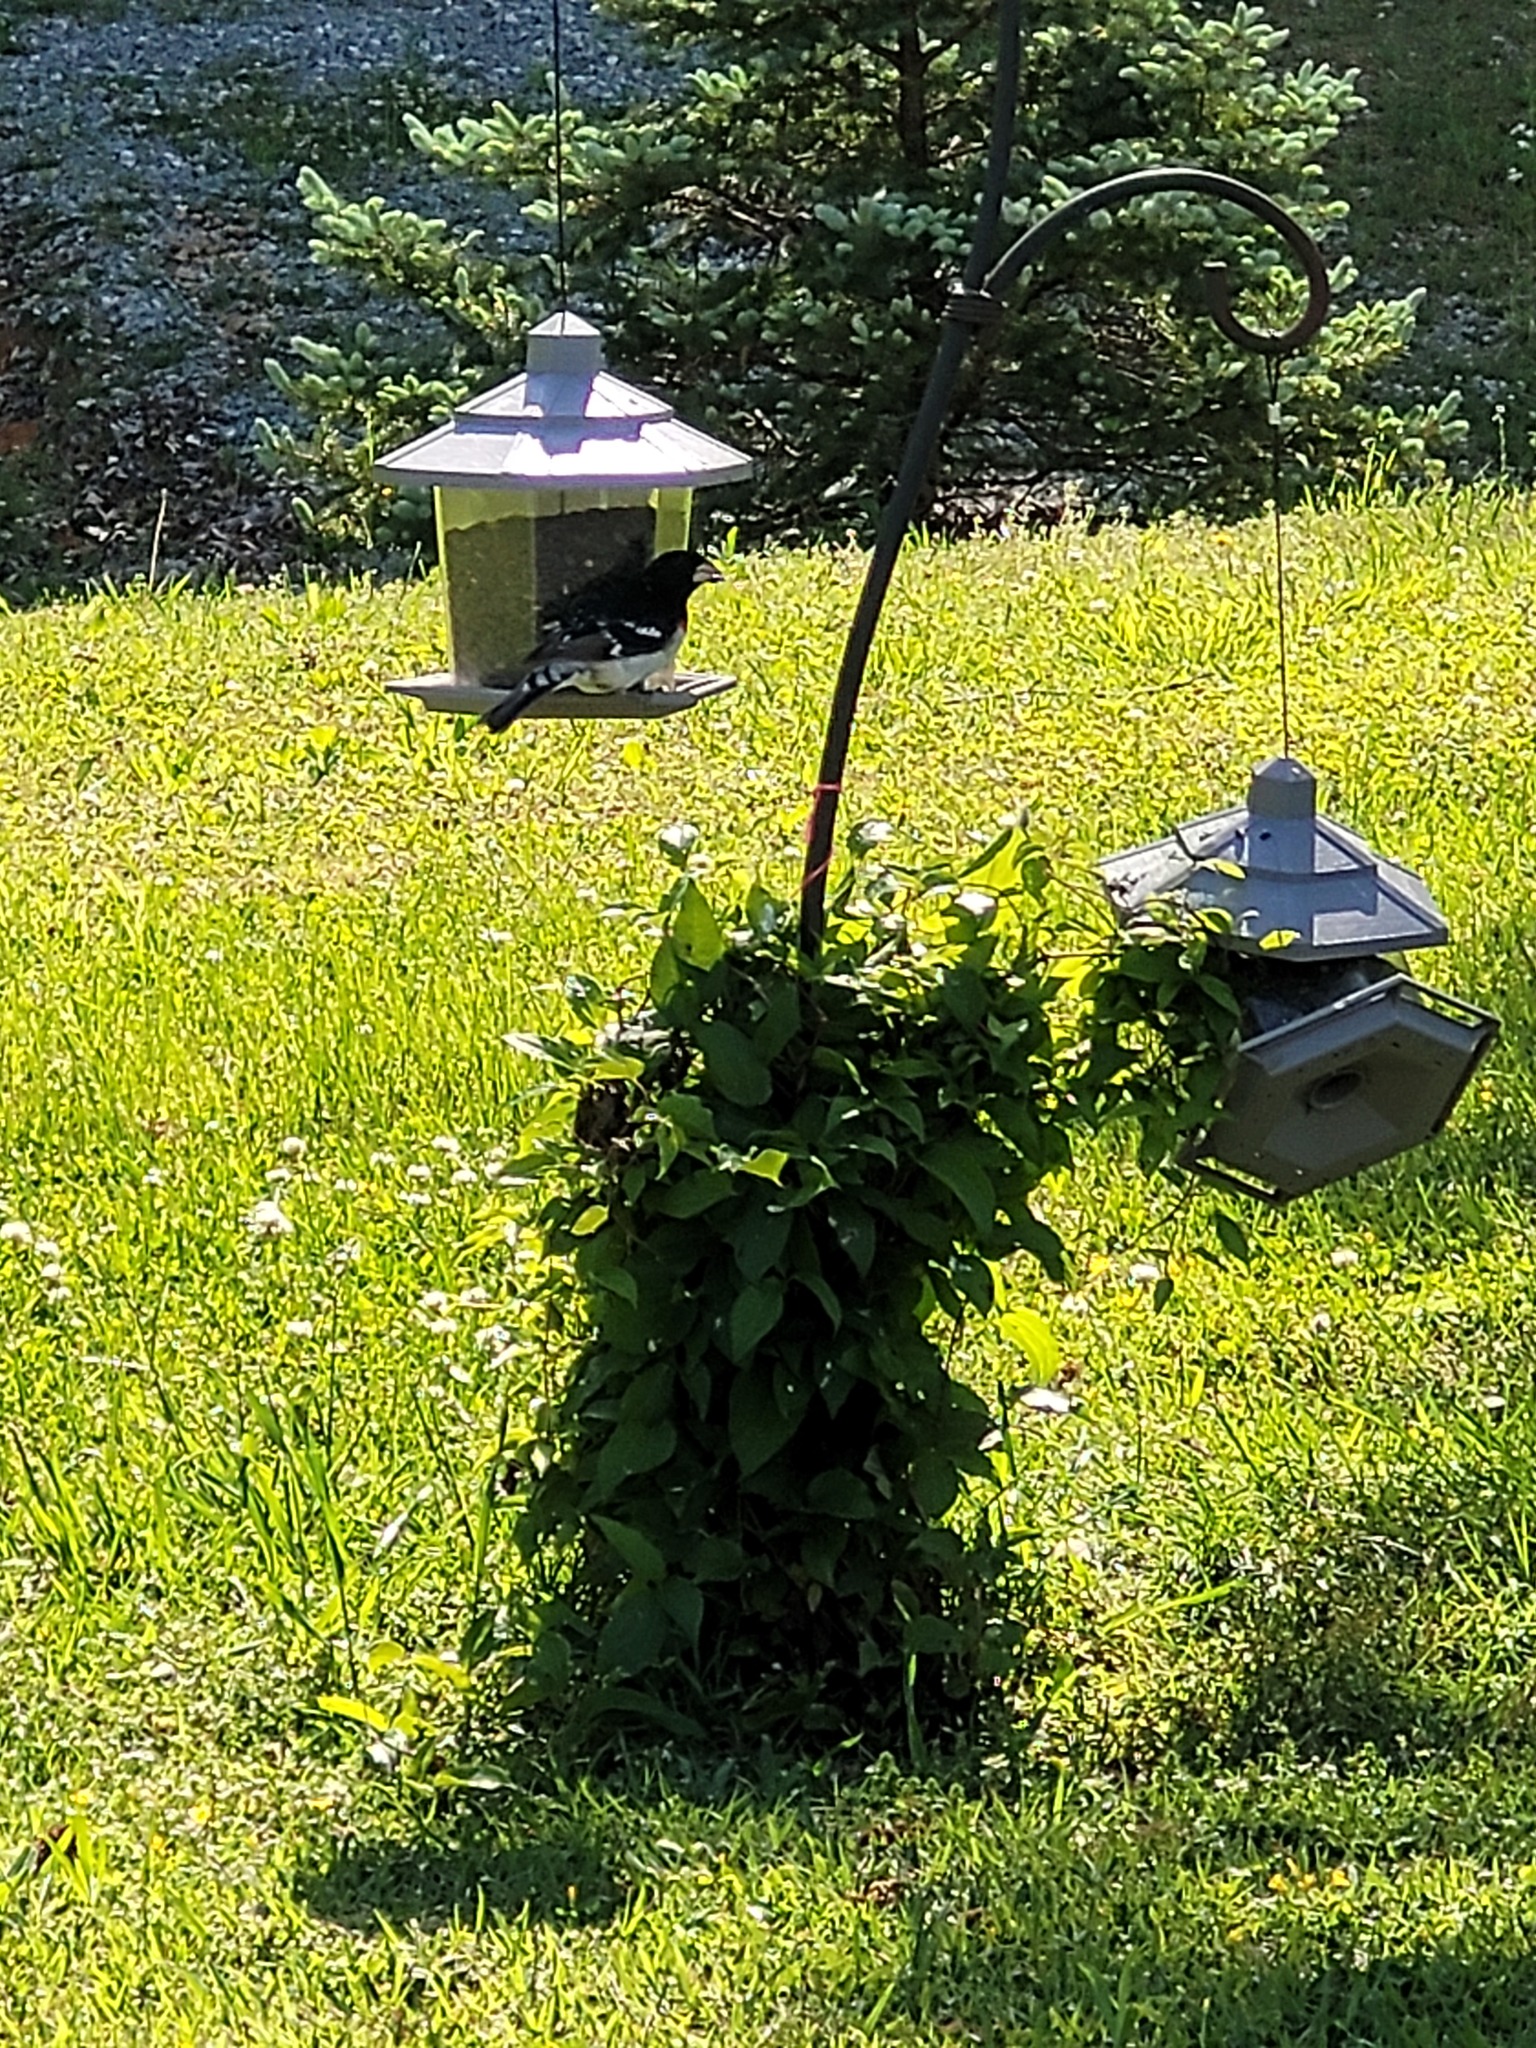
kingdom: Animalia
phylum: Chordata
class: Aves
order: Passeriformes
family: Cardinalidae
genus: Pheucticus
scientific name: Pheucticus ludovicianus
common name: Rose-breasted grosbeak
